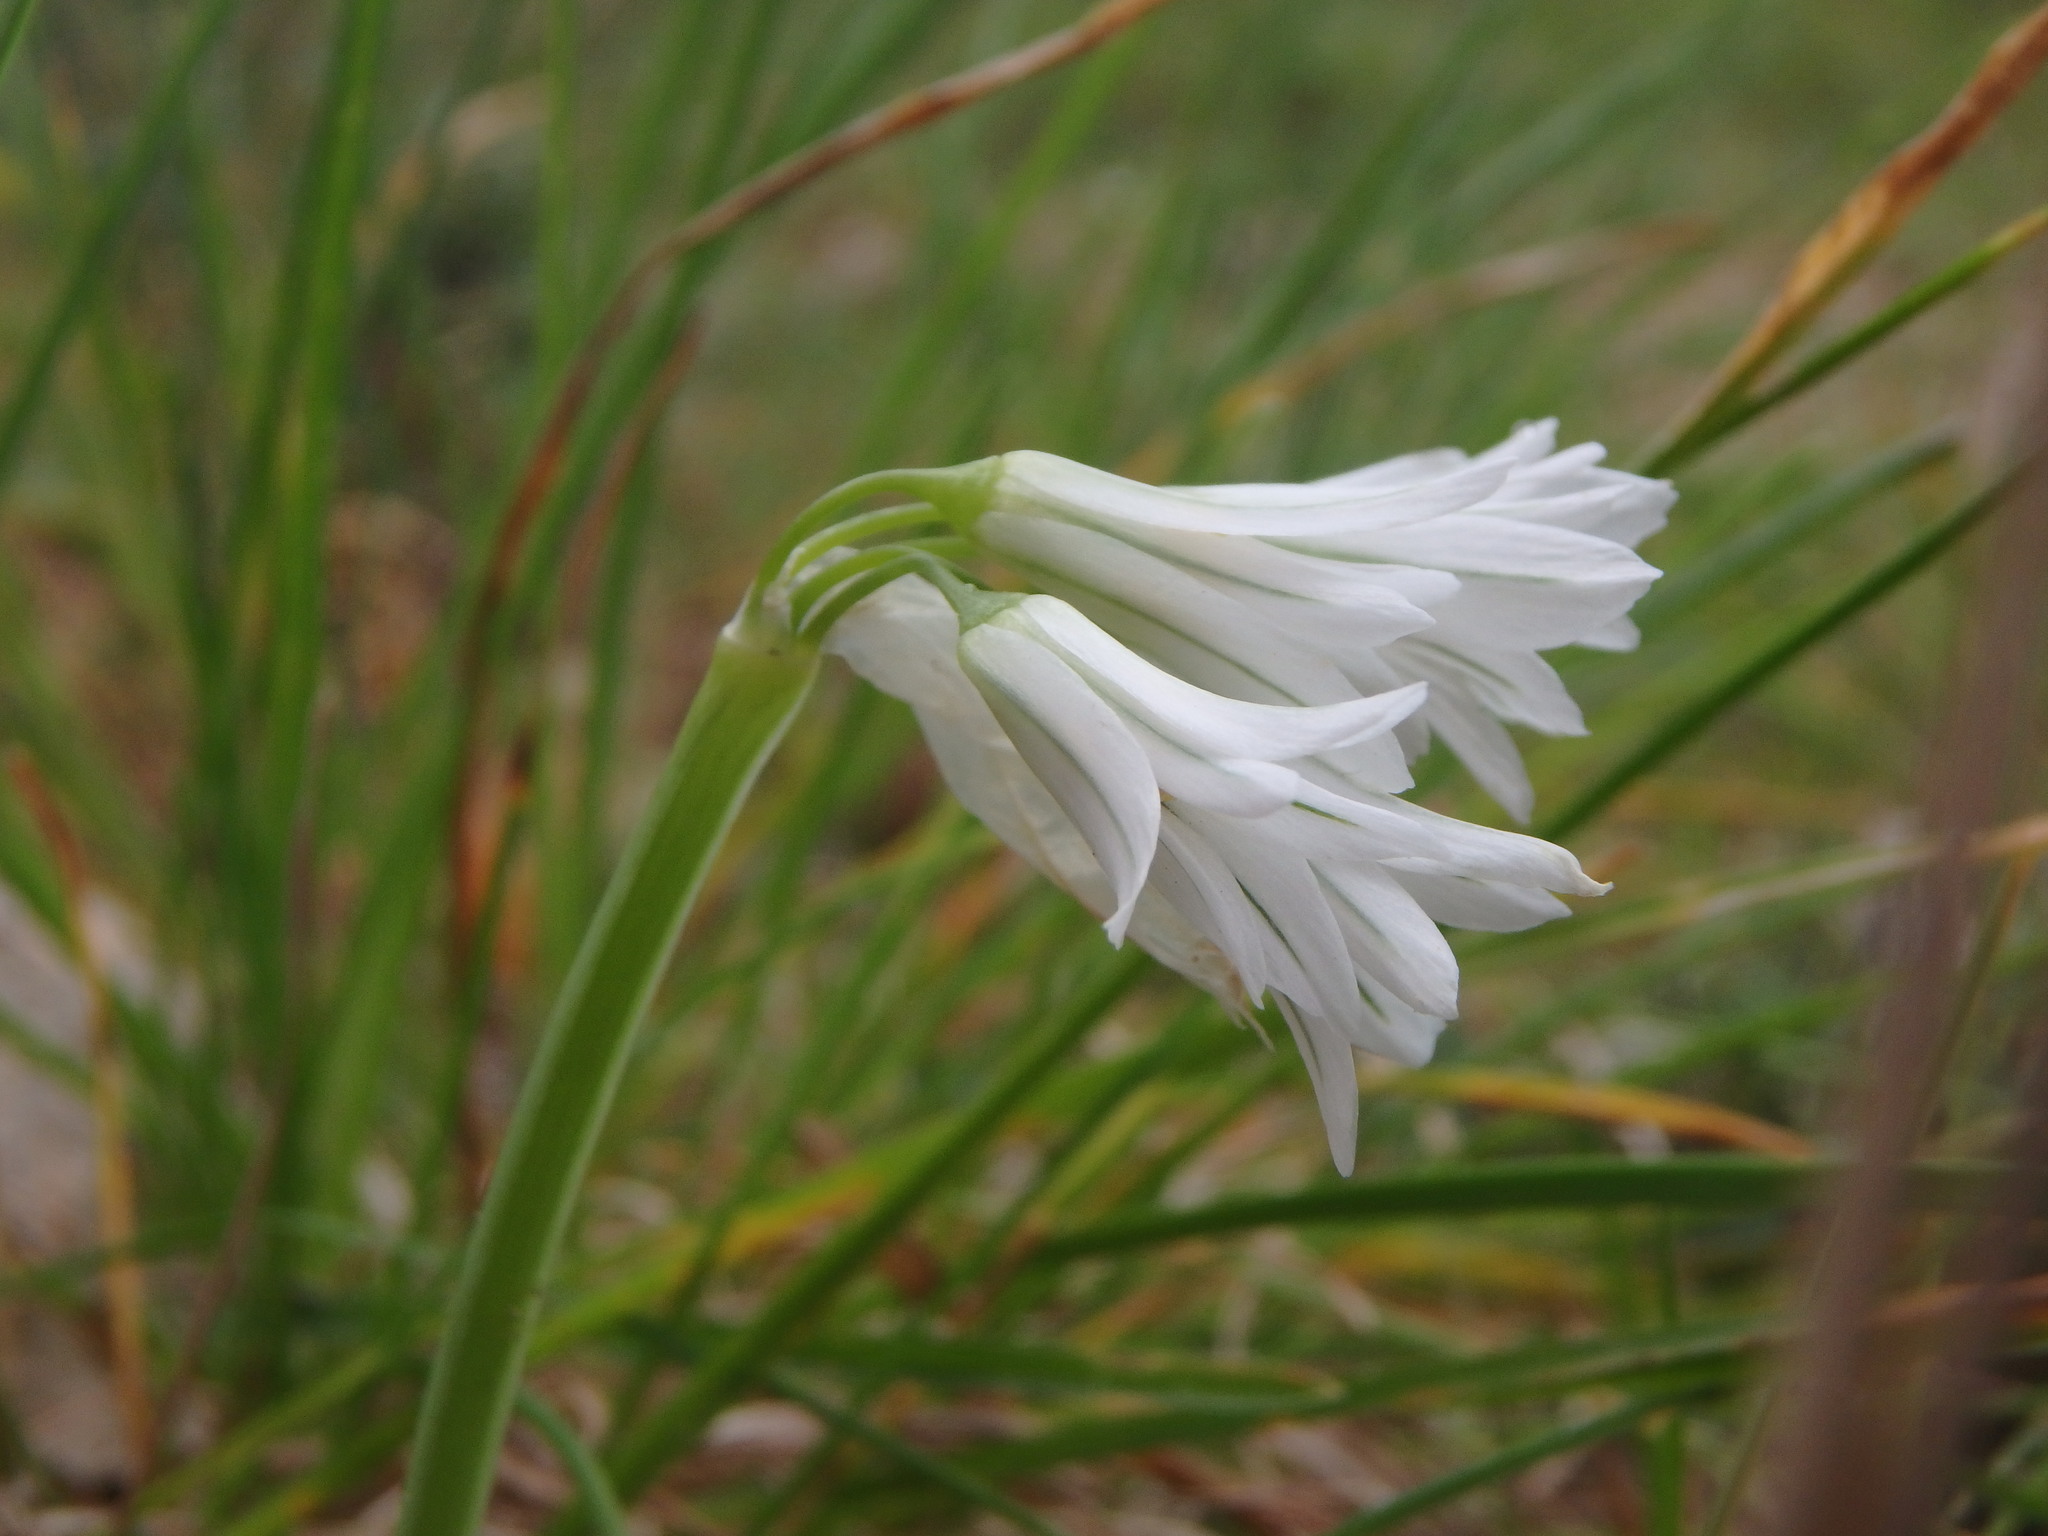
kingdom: Plantae
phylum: Tracheophyta
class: Liliopsida
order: Asparagales
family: Amaryllidaceae
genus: Allium
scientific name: Allium triquetrum
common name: Three-cornered garlic
